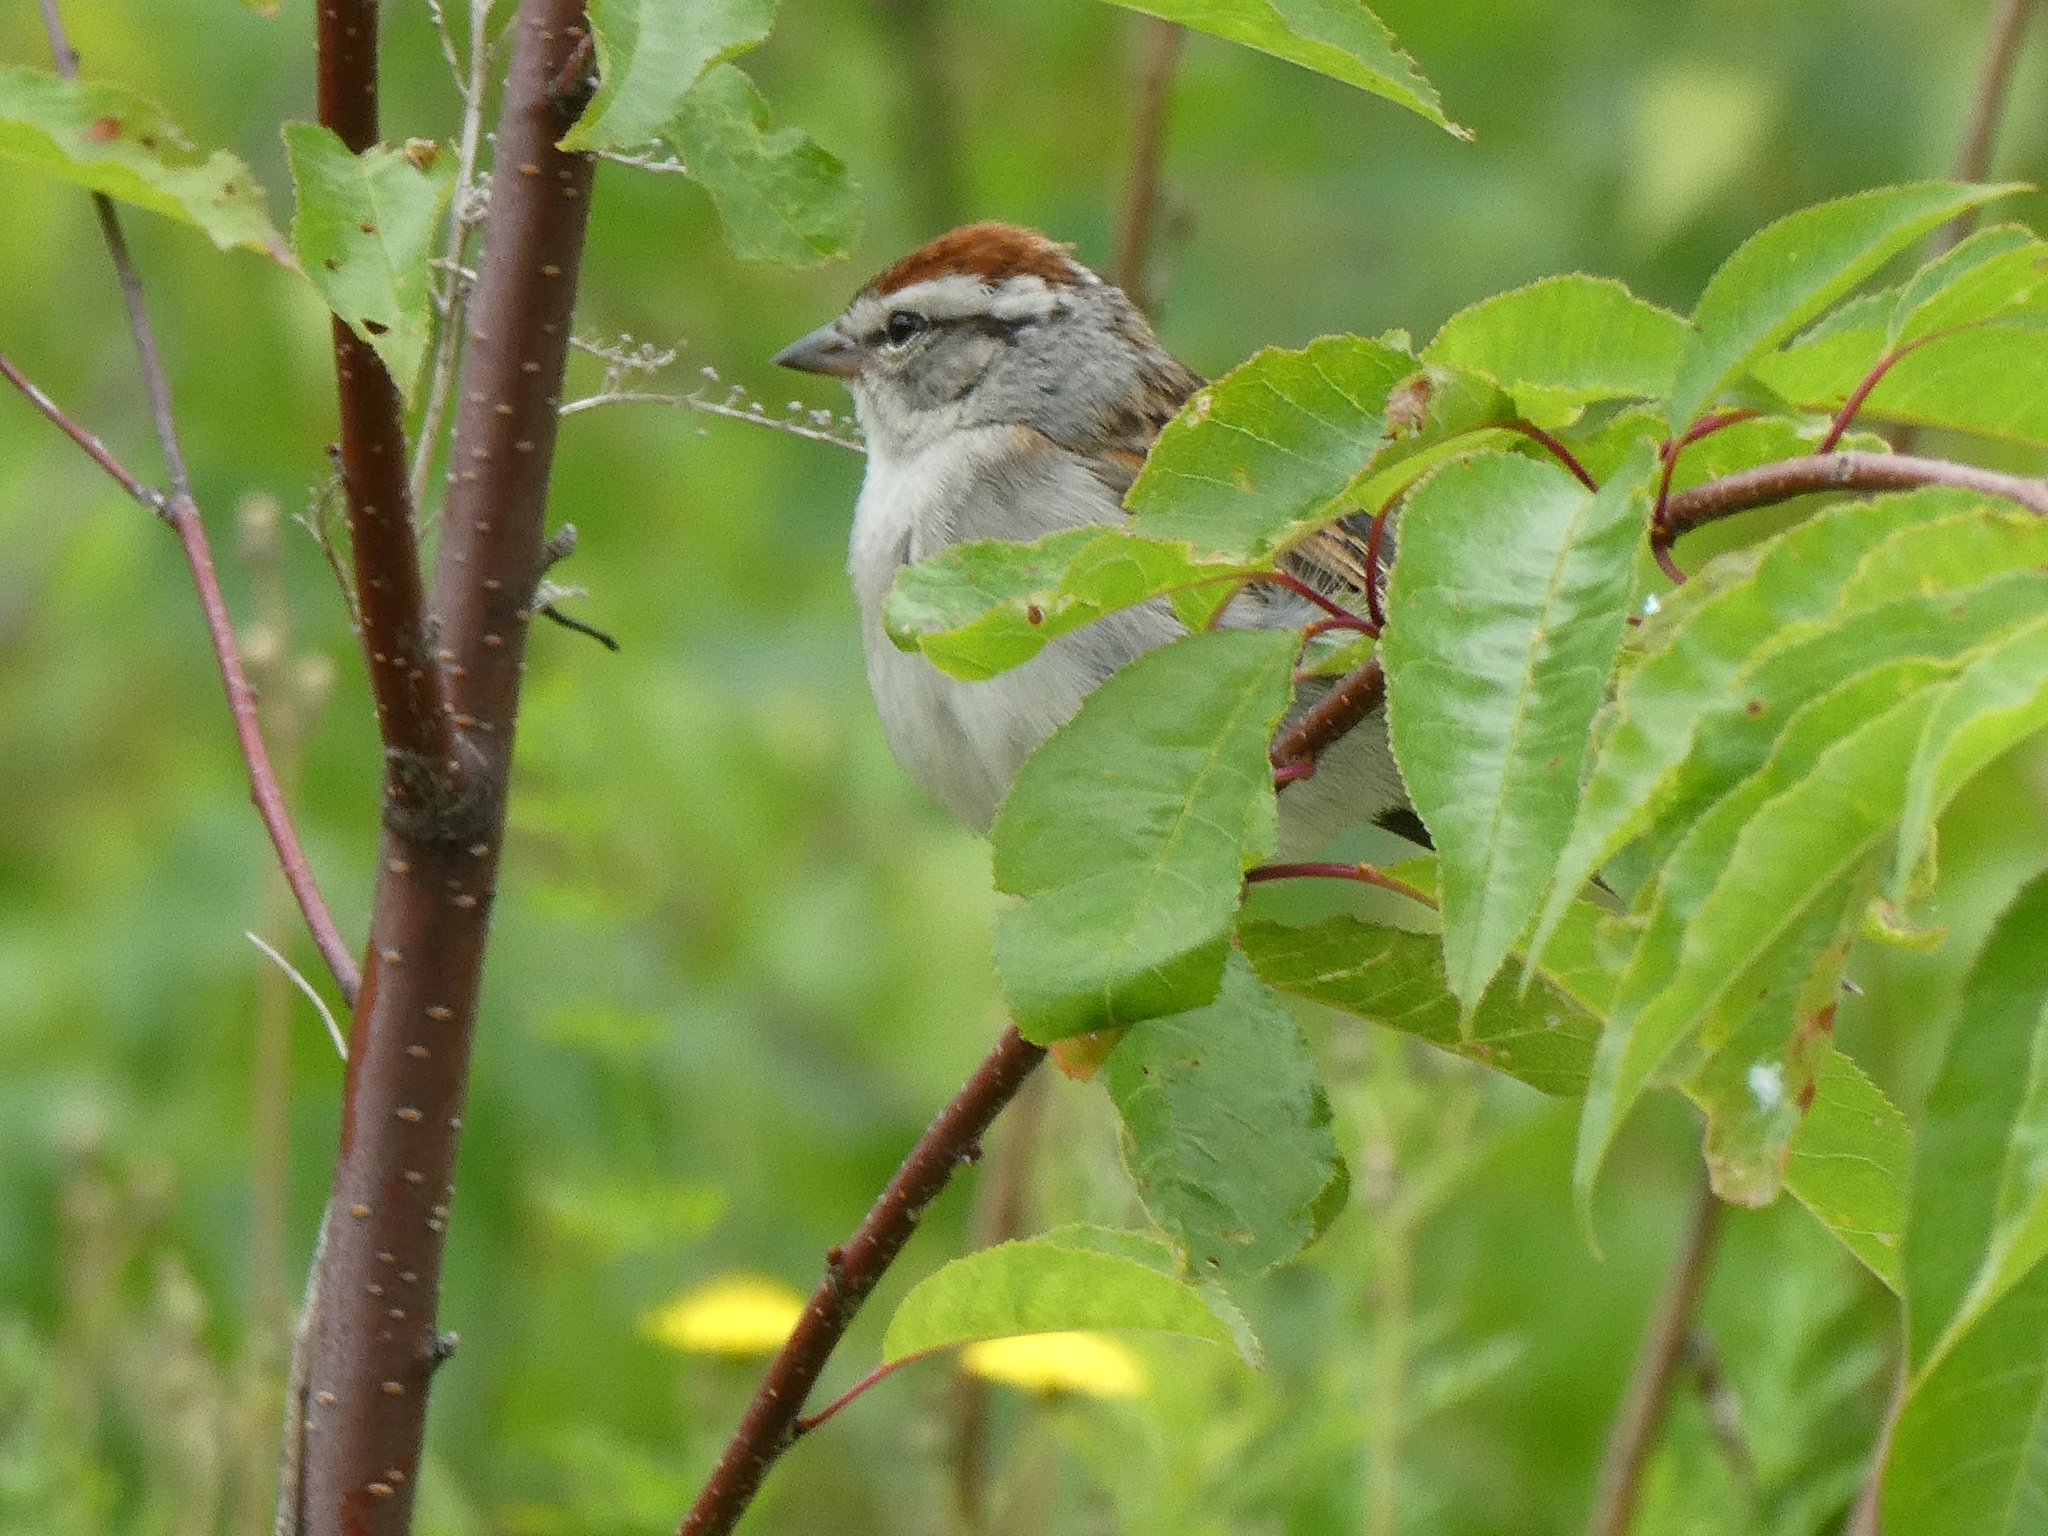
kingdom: Animalia
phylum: Chordata
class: Aves
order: Passeriformes
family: Passerellidae
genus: Spizella
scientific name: Spizella passerina
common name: Chipping sparrow
